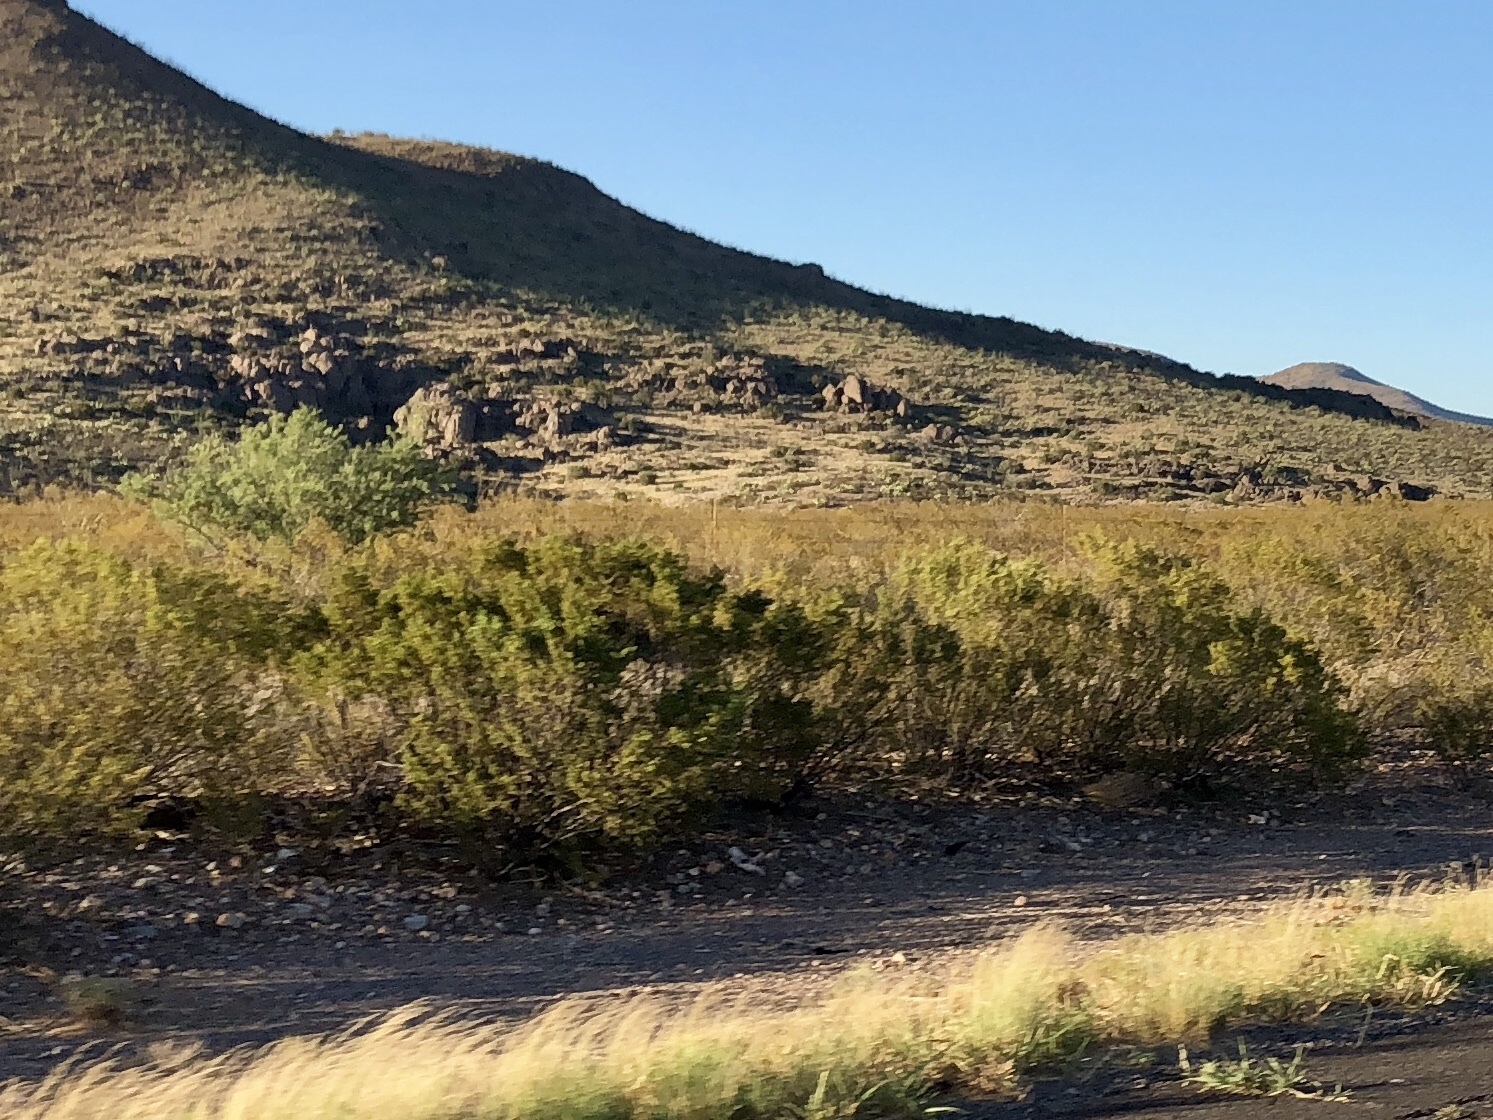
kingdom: Plantae
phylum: Tracheophyta
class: Magnoliopsida
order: Zygophyllales
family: Zygophyllaceae
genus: Larrea
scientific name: Larrea tridentata
